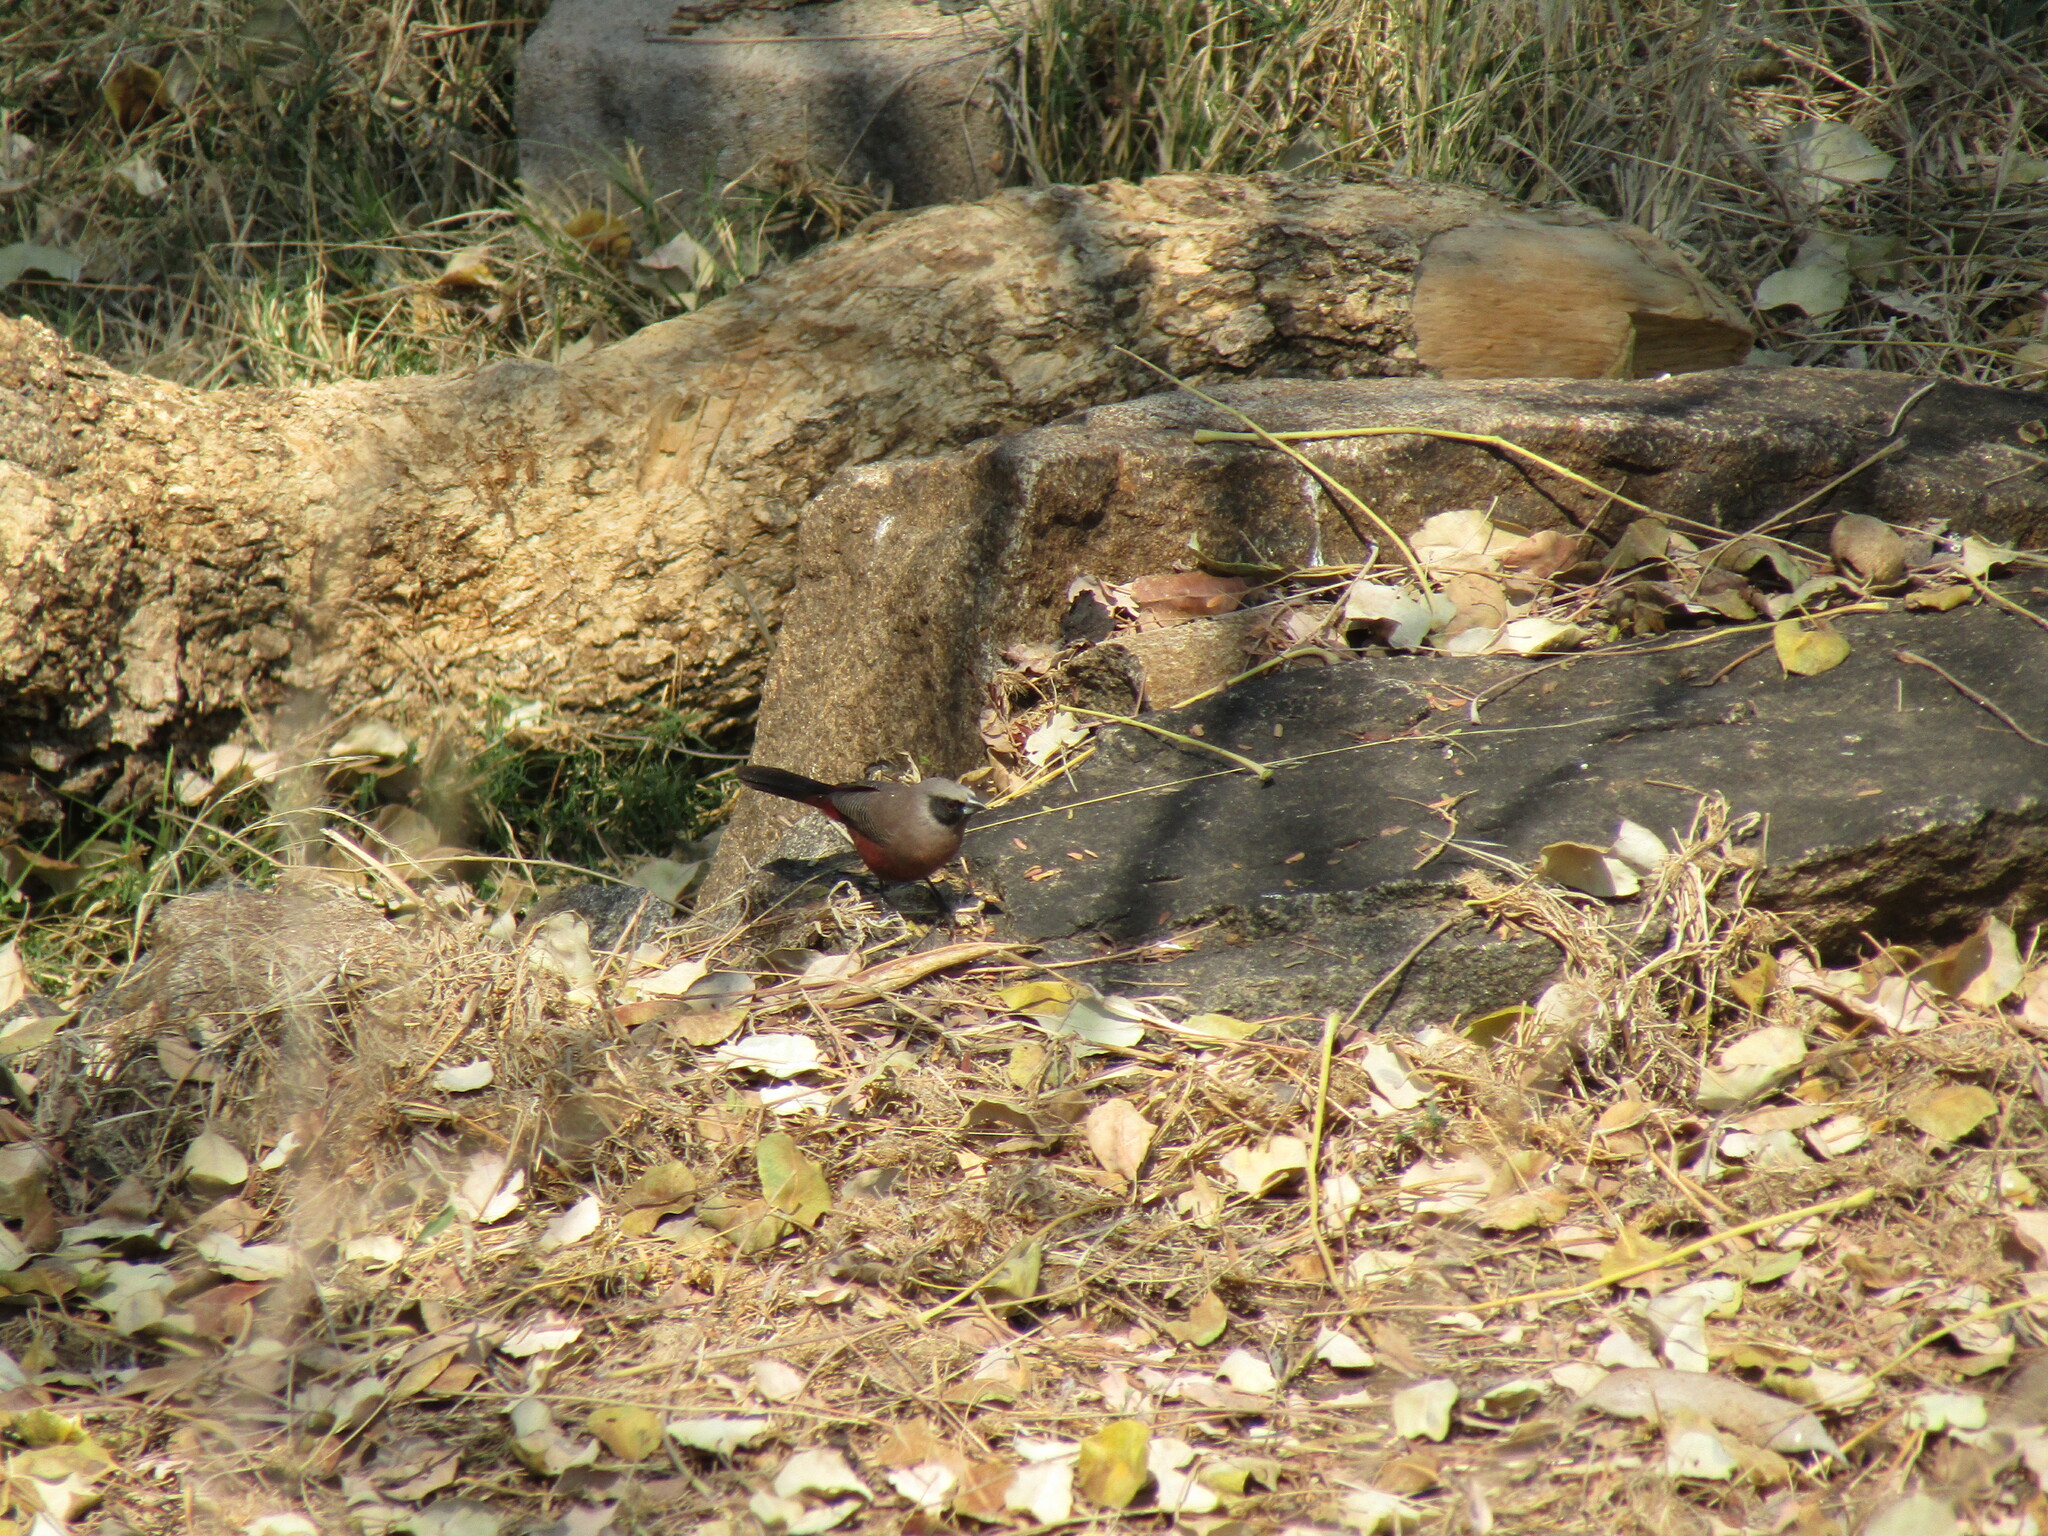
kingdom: Animalia
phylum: Chordata
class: Aves
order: Passeriformes
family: Estrildidae
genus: Estrilda
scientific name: Estrilda erythronotos
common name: Black-faced waxbill
